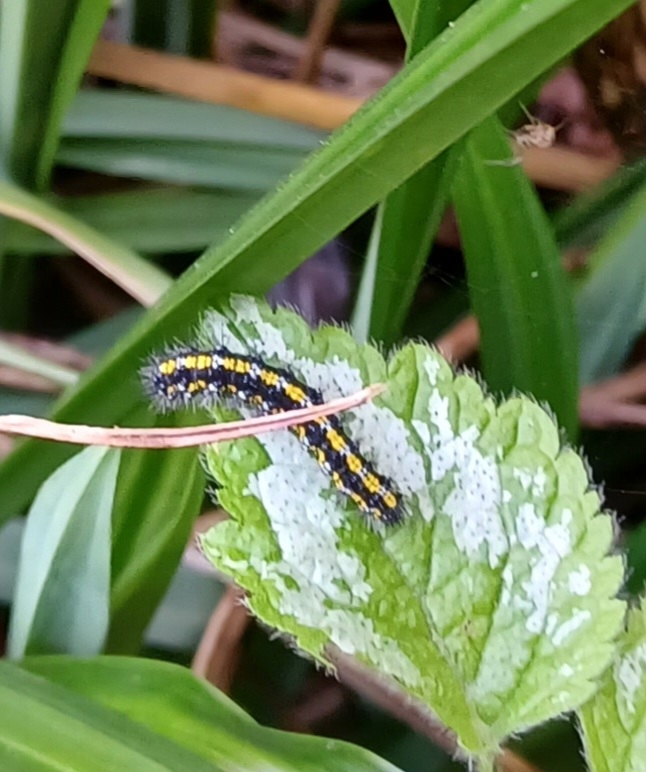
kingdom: Animalia
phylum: Arthropoda
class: Insecta
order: Lepidoptera
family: Erebidae
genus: Callimorpha
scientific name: Callimorpha dominula
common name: Scarlet tiger
